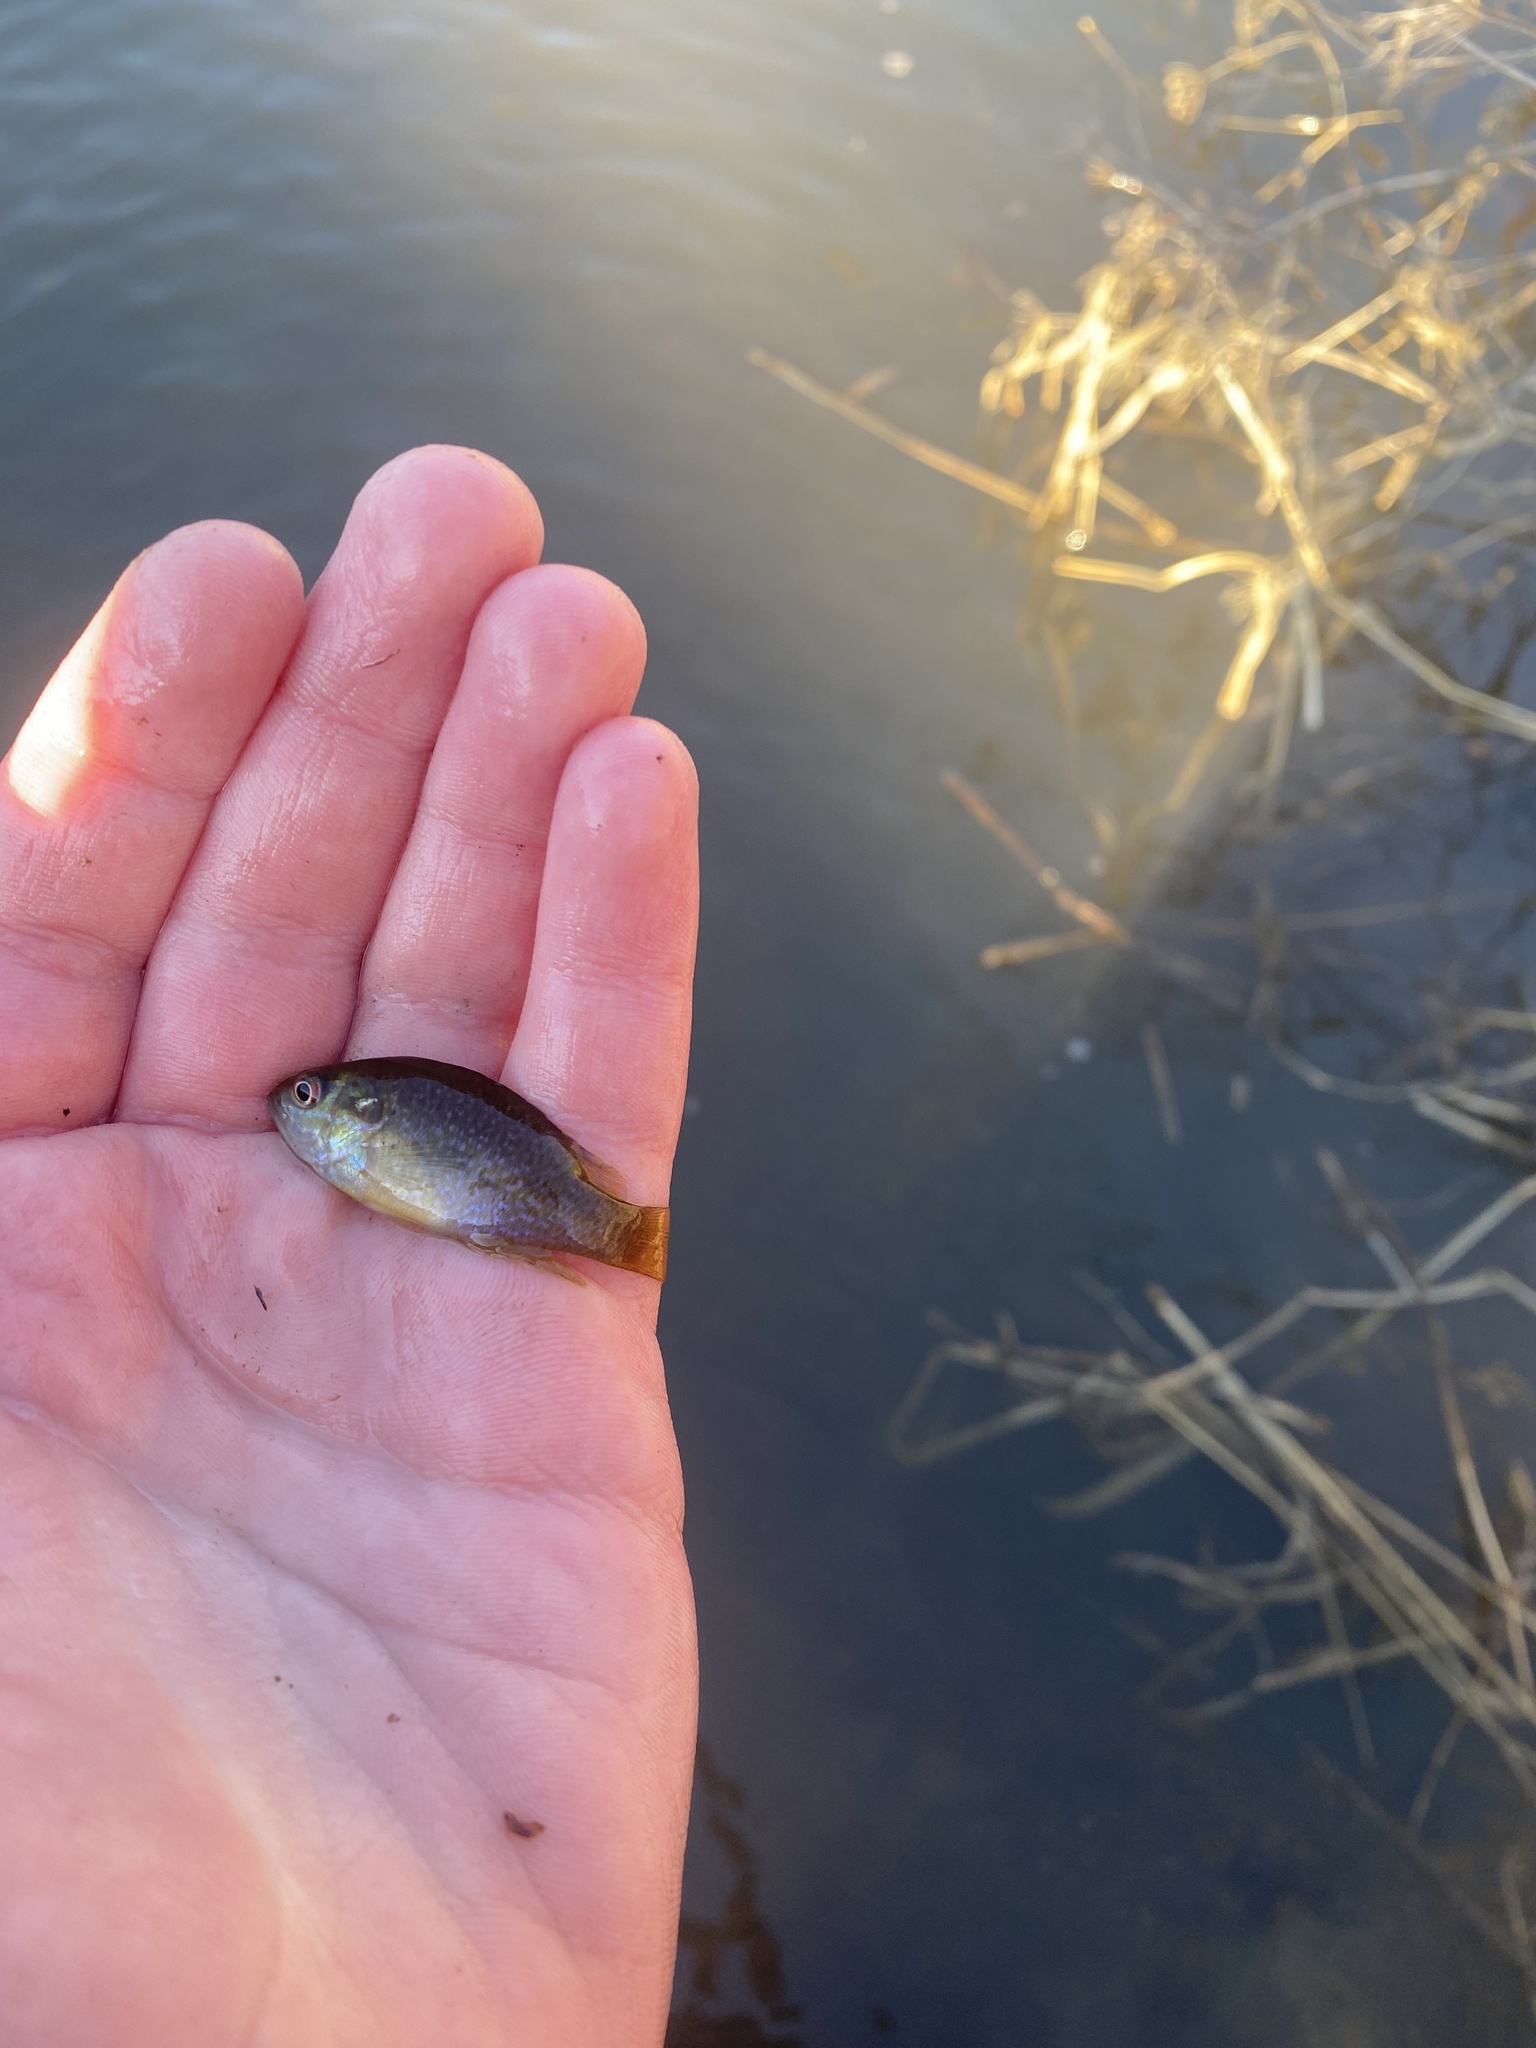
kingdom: Animalia
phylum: Chordata
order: Perciformes
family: Centrarchidae
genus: Lepomis
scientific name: Lepomis cyanellus
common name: Green sunfish
